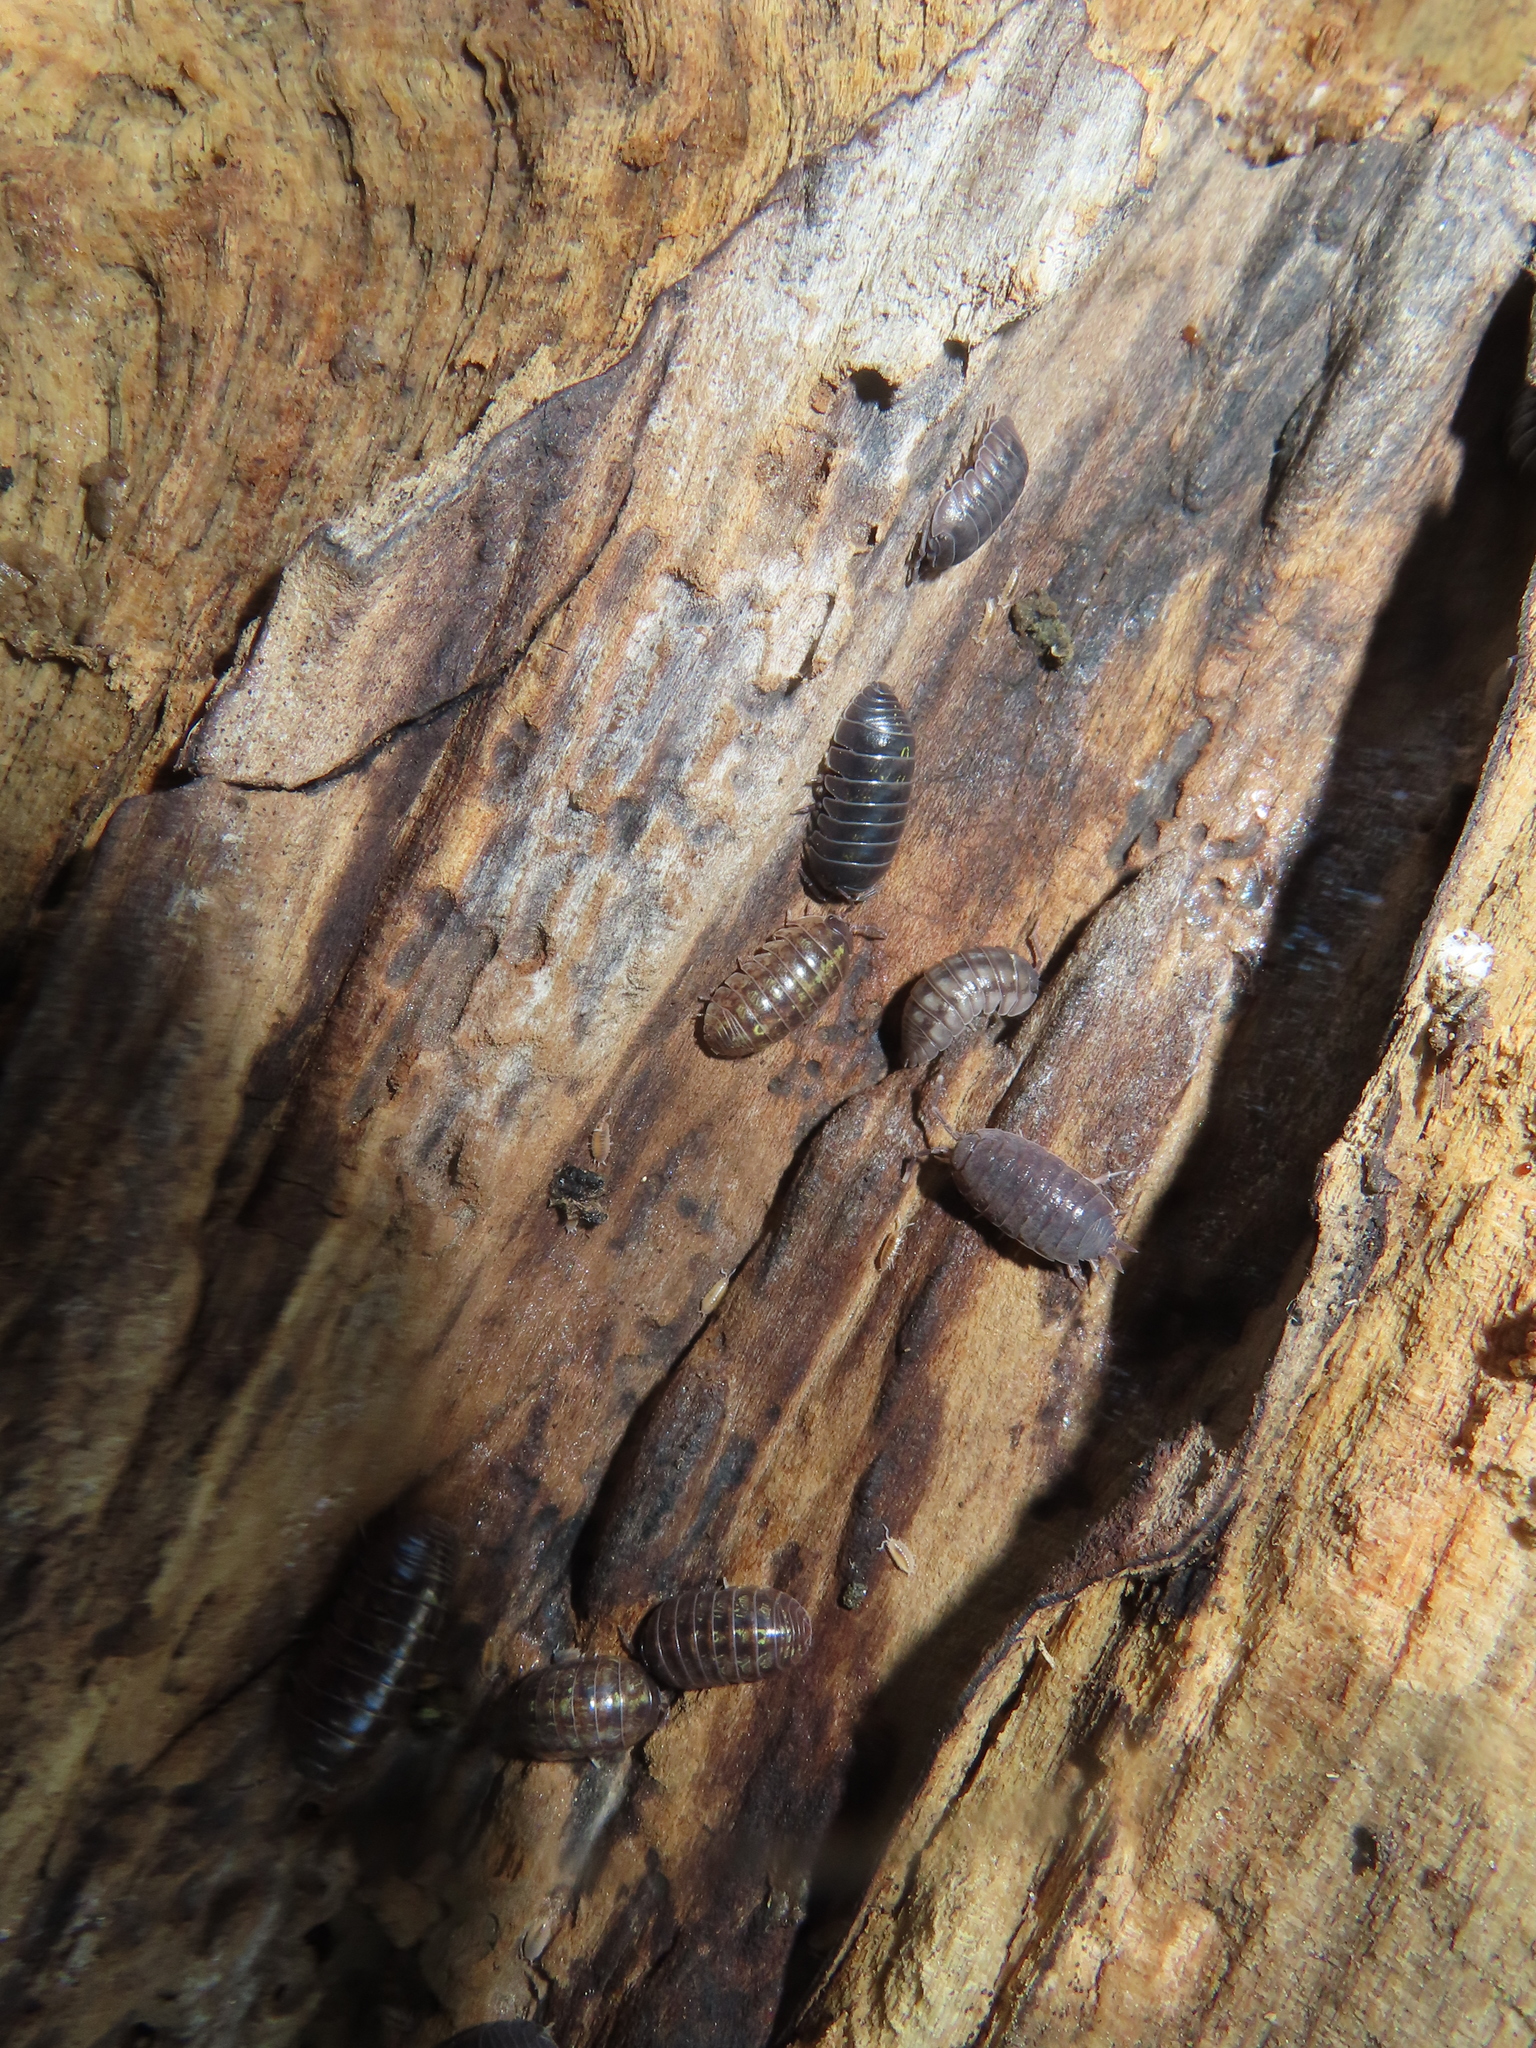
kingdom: Animalia
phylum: Arthropoda
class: Malacostraca
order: Isopoda
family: Armadillidiidae
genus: Armadillidium
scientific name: Armadillidium vulgare
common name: Common pill woodlouse
